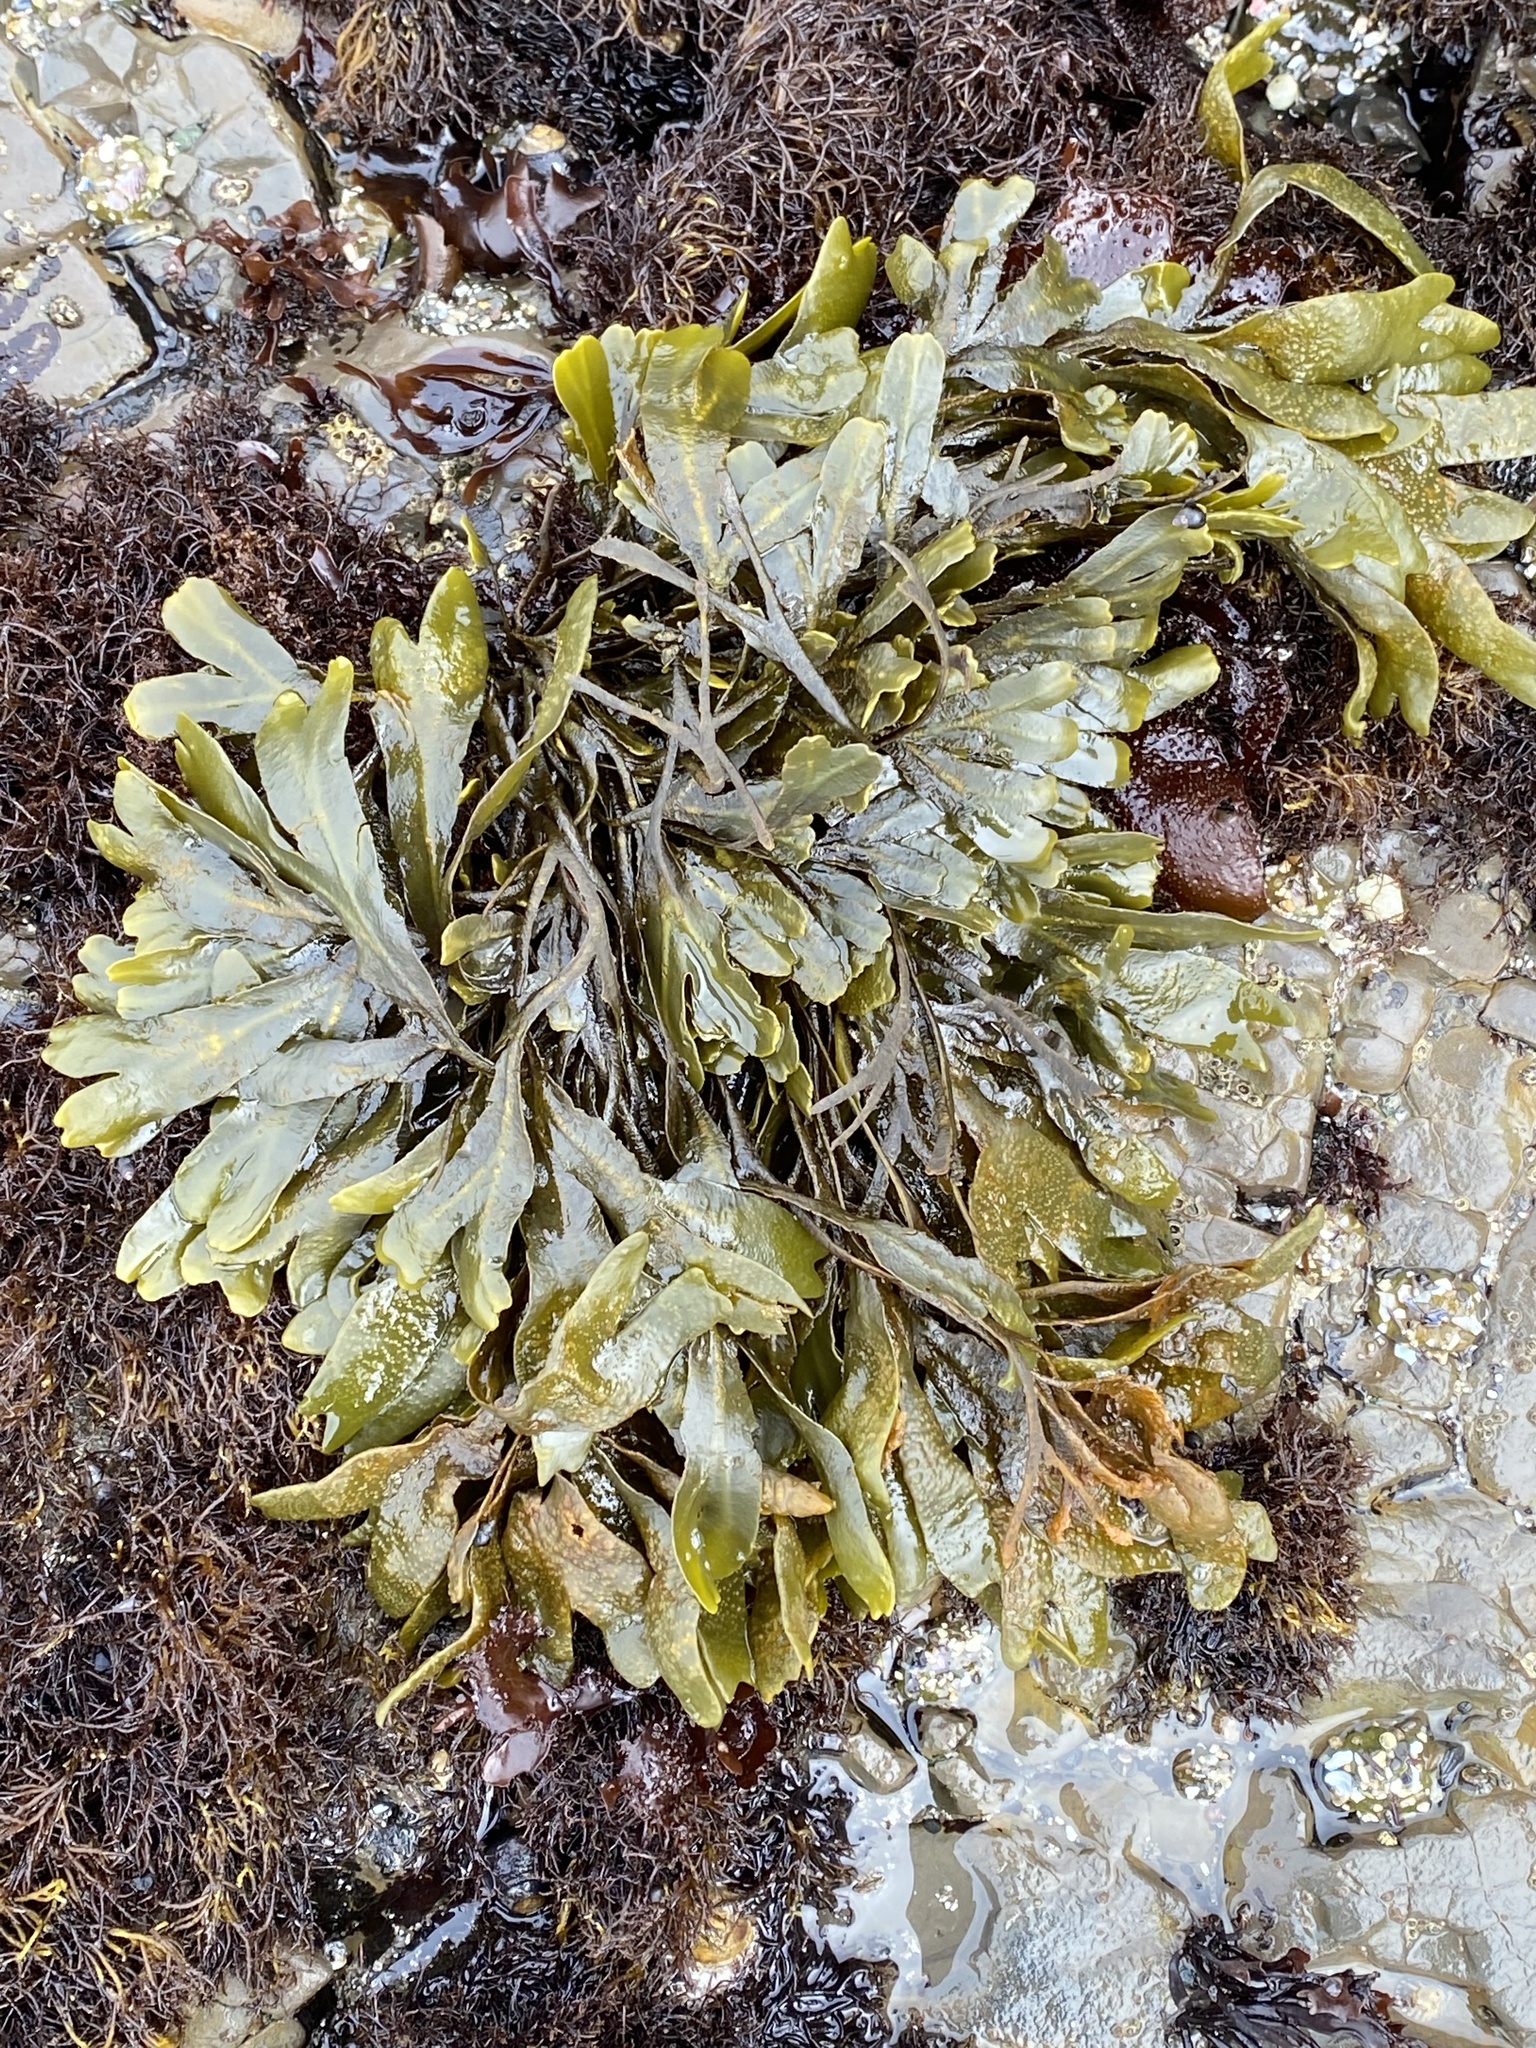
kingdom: Chromista
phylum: Ochrophyta
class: Phaeophyceae
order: Fucales
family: Fucaceae
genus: Fucus
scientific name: Fucus distichus
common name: Rockweed
